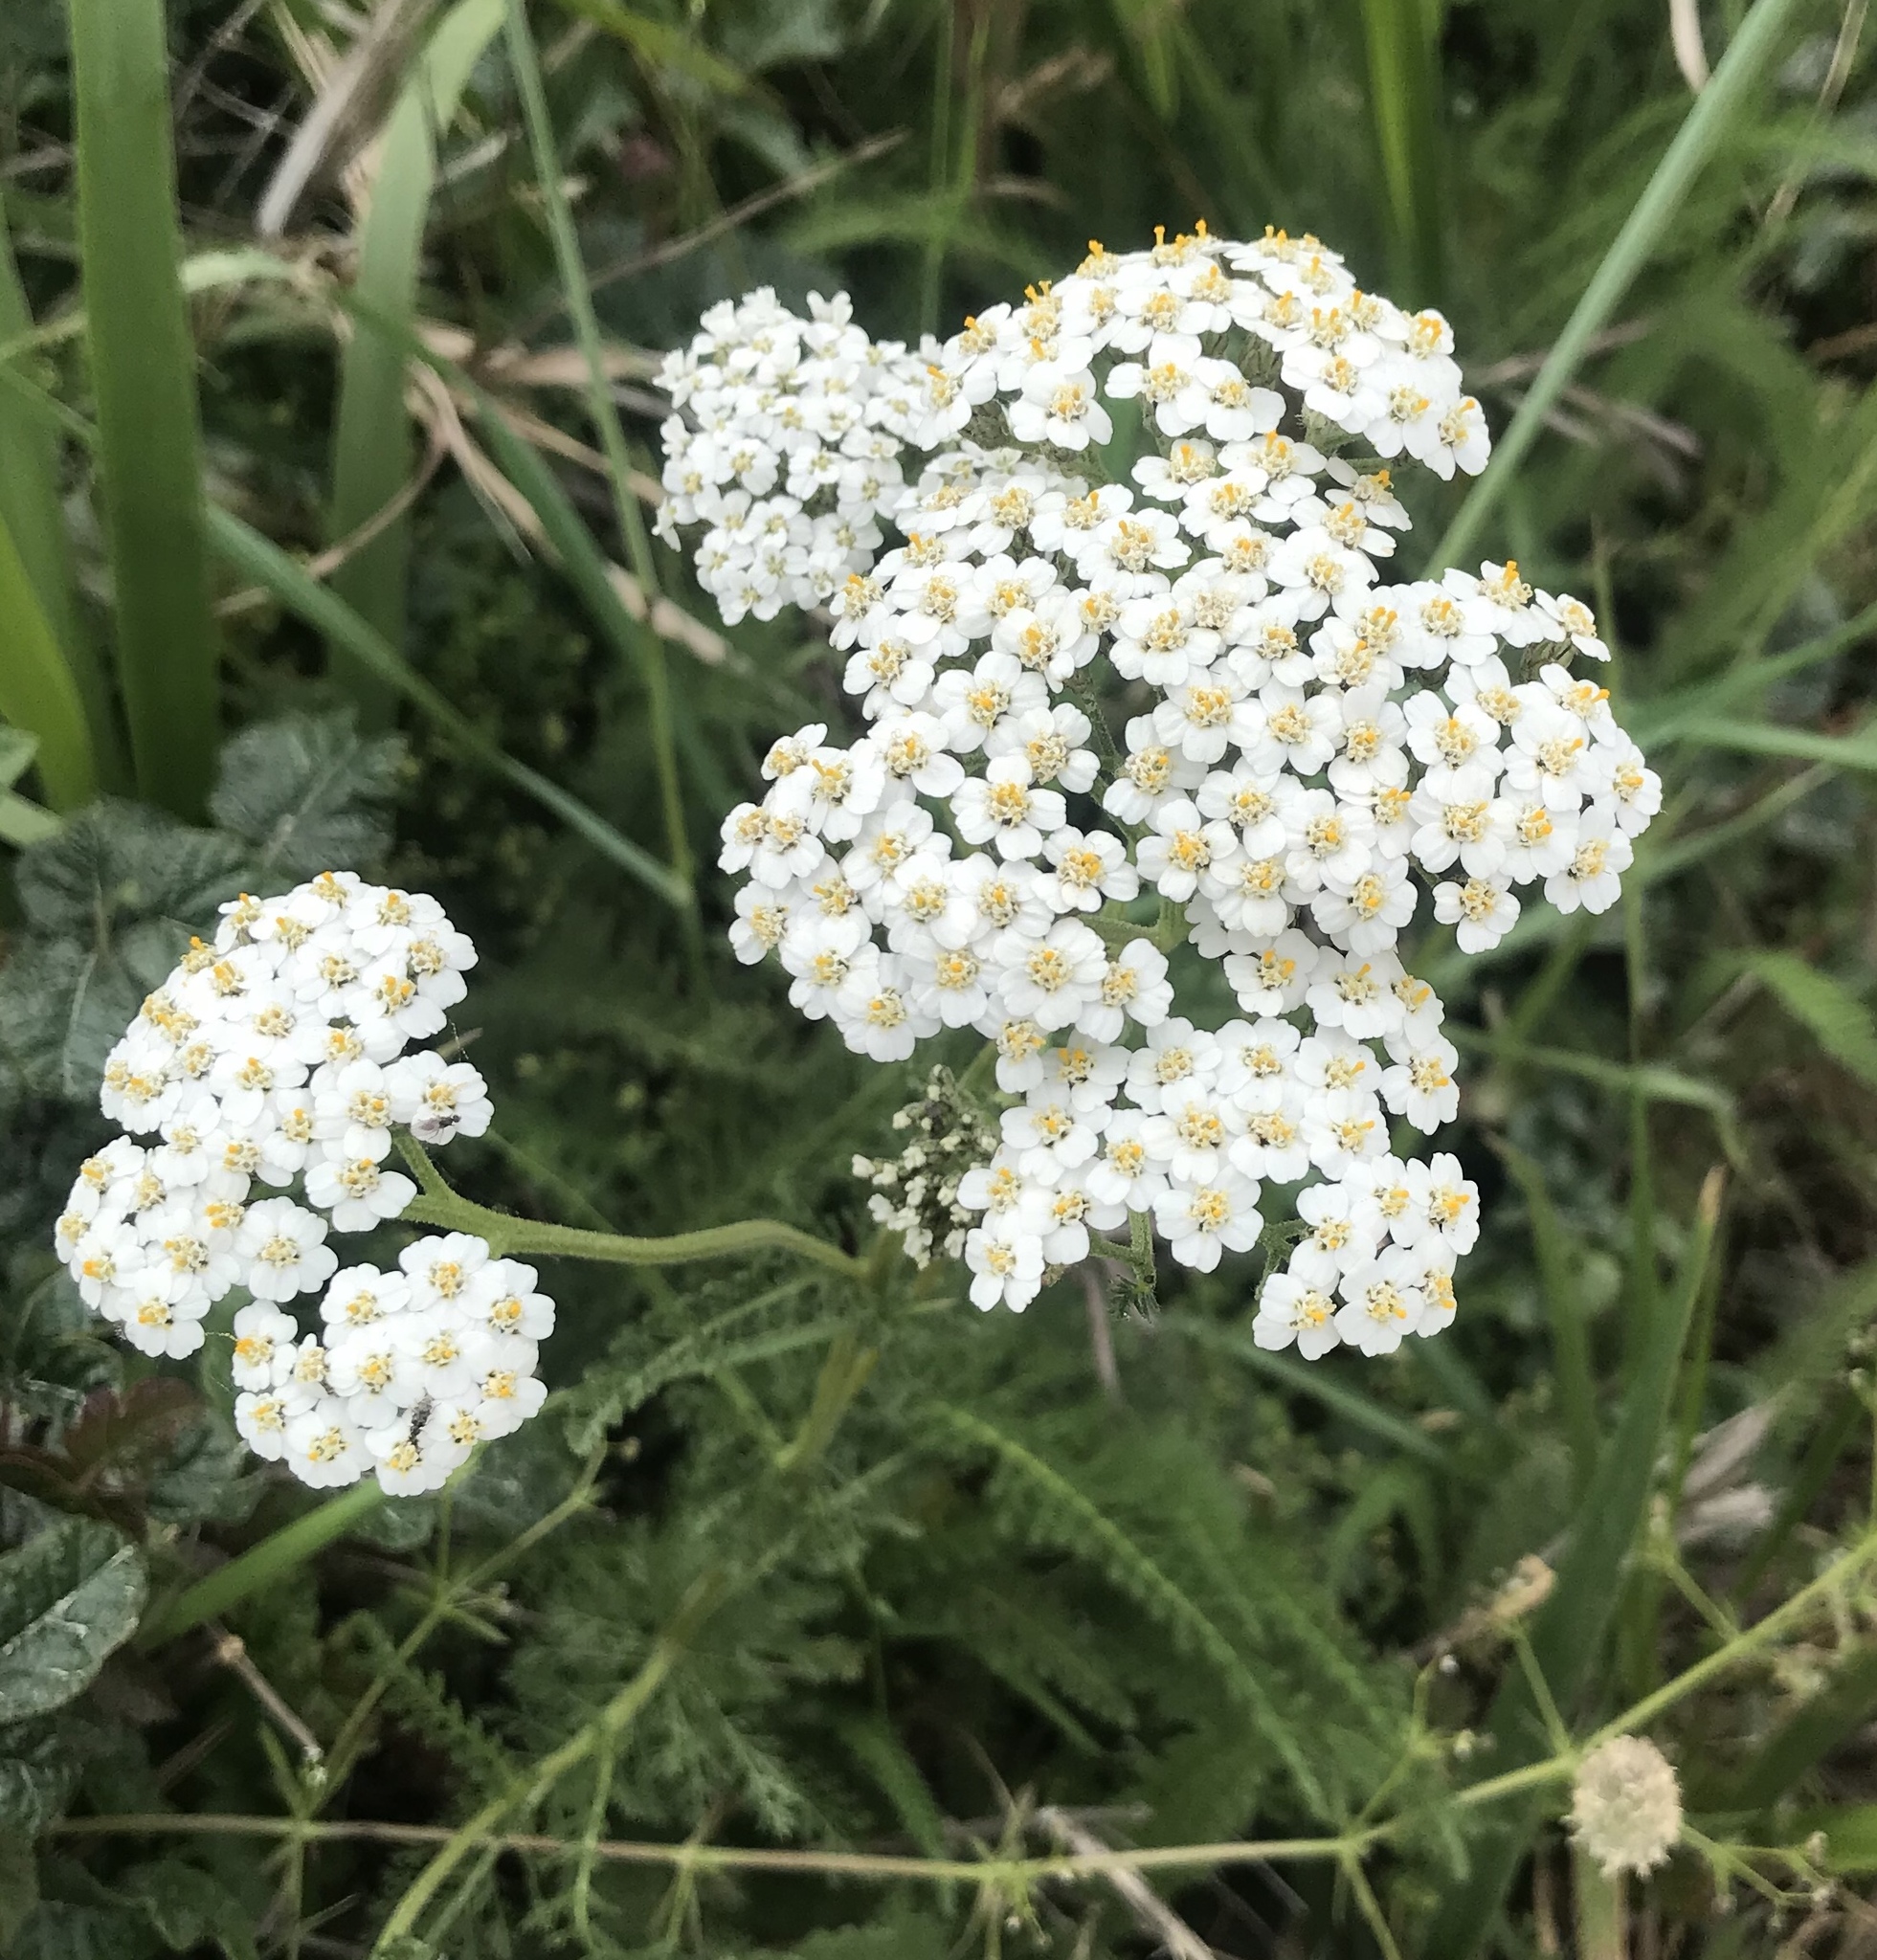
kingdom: Plantae
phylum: Tracheophyta
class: Magnoliopsida
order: Asterales
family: Asteraceae
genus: Achillea
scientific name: Achillea millefolium
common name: Yarrow
